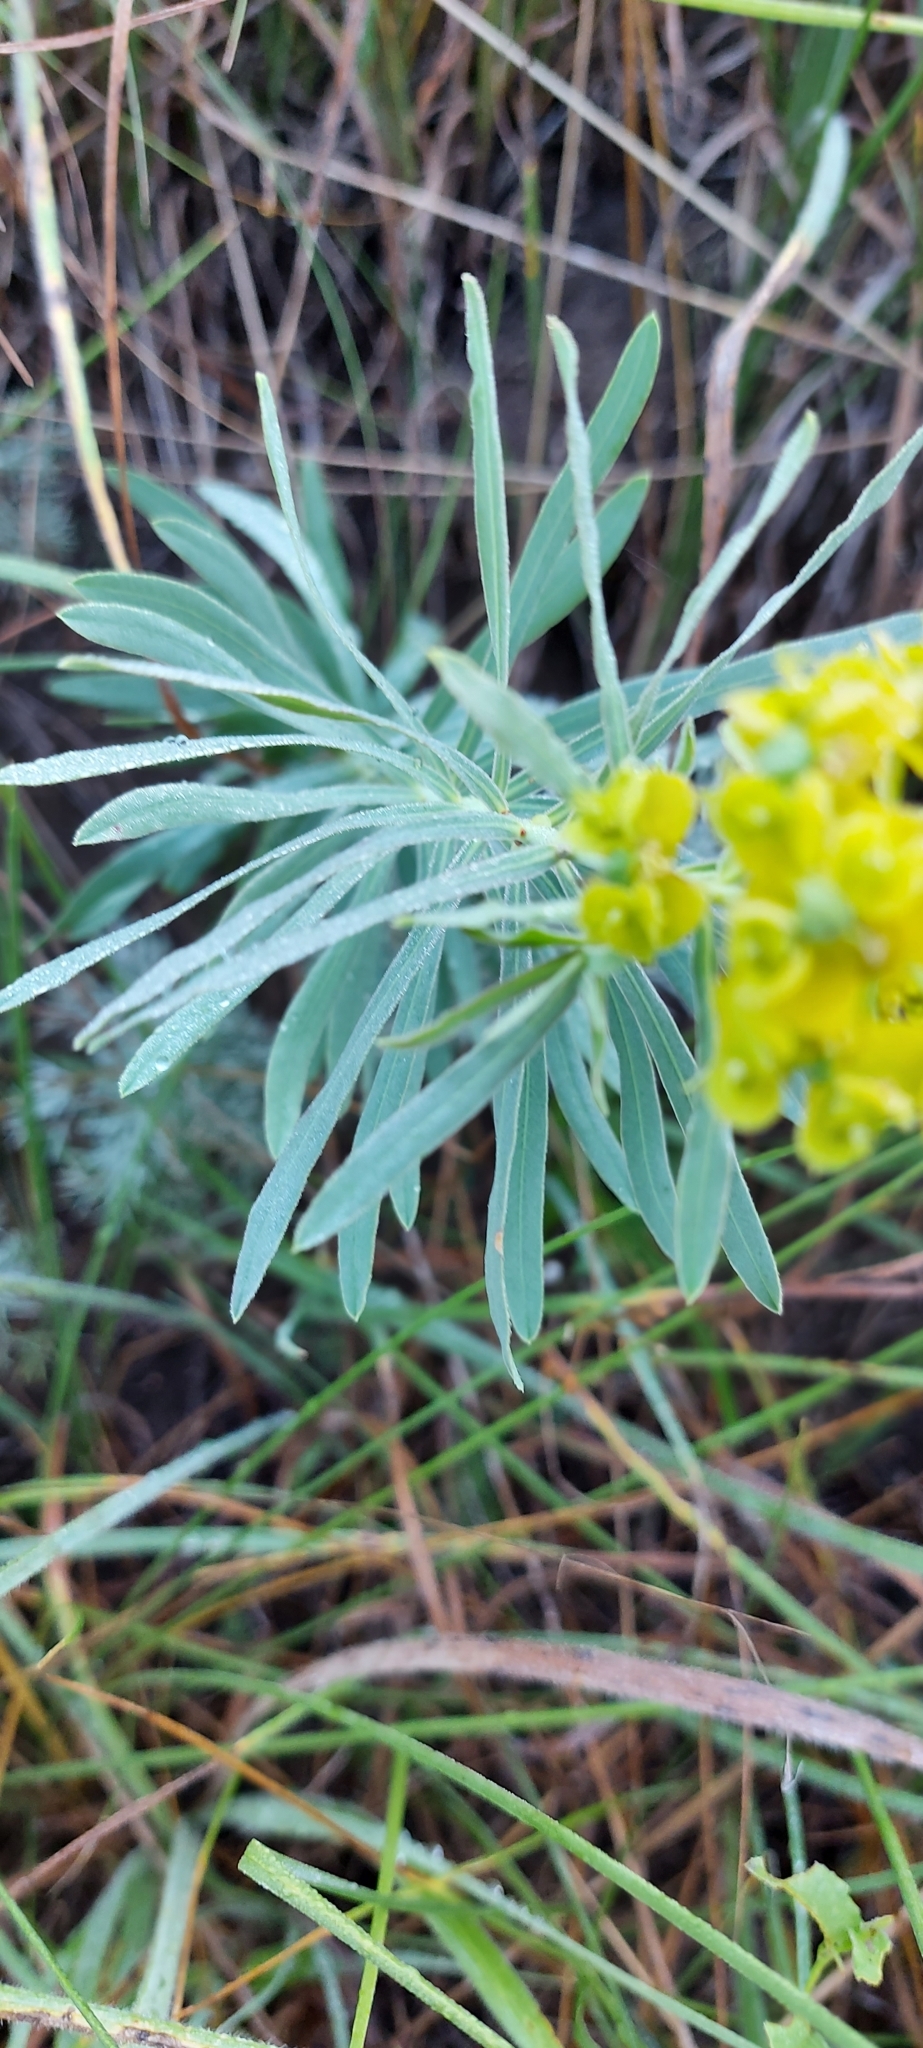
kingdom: Plantae
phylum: Tracheophyta
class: Magnoliopsida
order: Malpighiales
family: Euphorbiaceae
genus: Euphorbia
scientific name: Euphorbia virgata
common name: Leafy spurge
